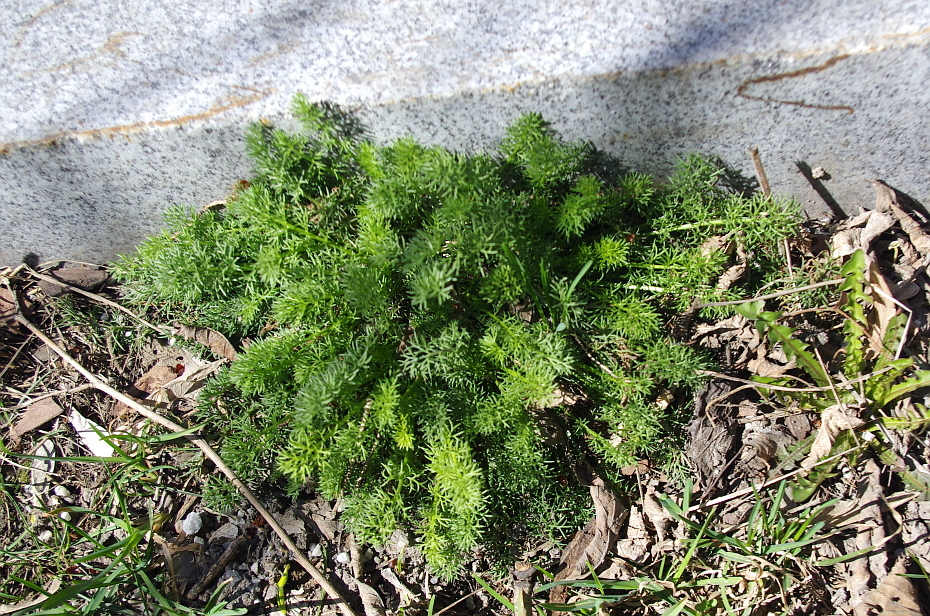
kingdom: Plantae
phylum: Tracheophyta
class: Magnoliopsida
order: Asterales
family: Asteraceae
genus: Tripleurospermum
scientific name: Tripleurospermum inodorum
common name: Scentless mayweed
